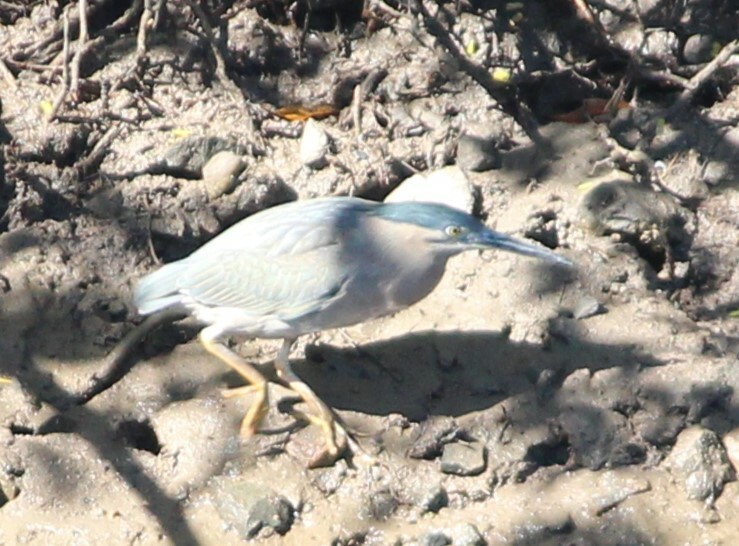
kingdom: Animalia
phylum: Chordata
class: Aves
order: Pelecaniformes
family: Ardeidae
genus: Butorides
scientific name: Butorides striata
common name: Striated heron
